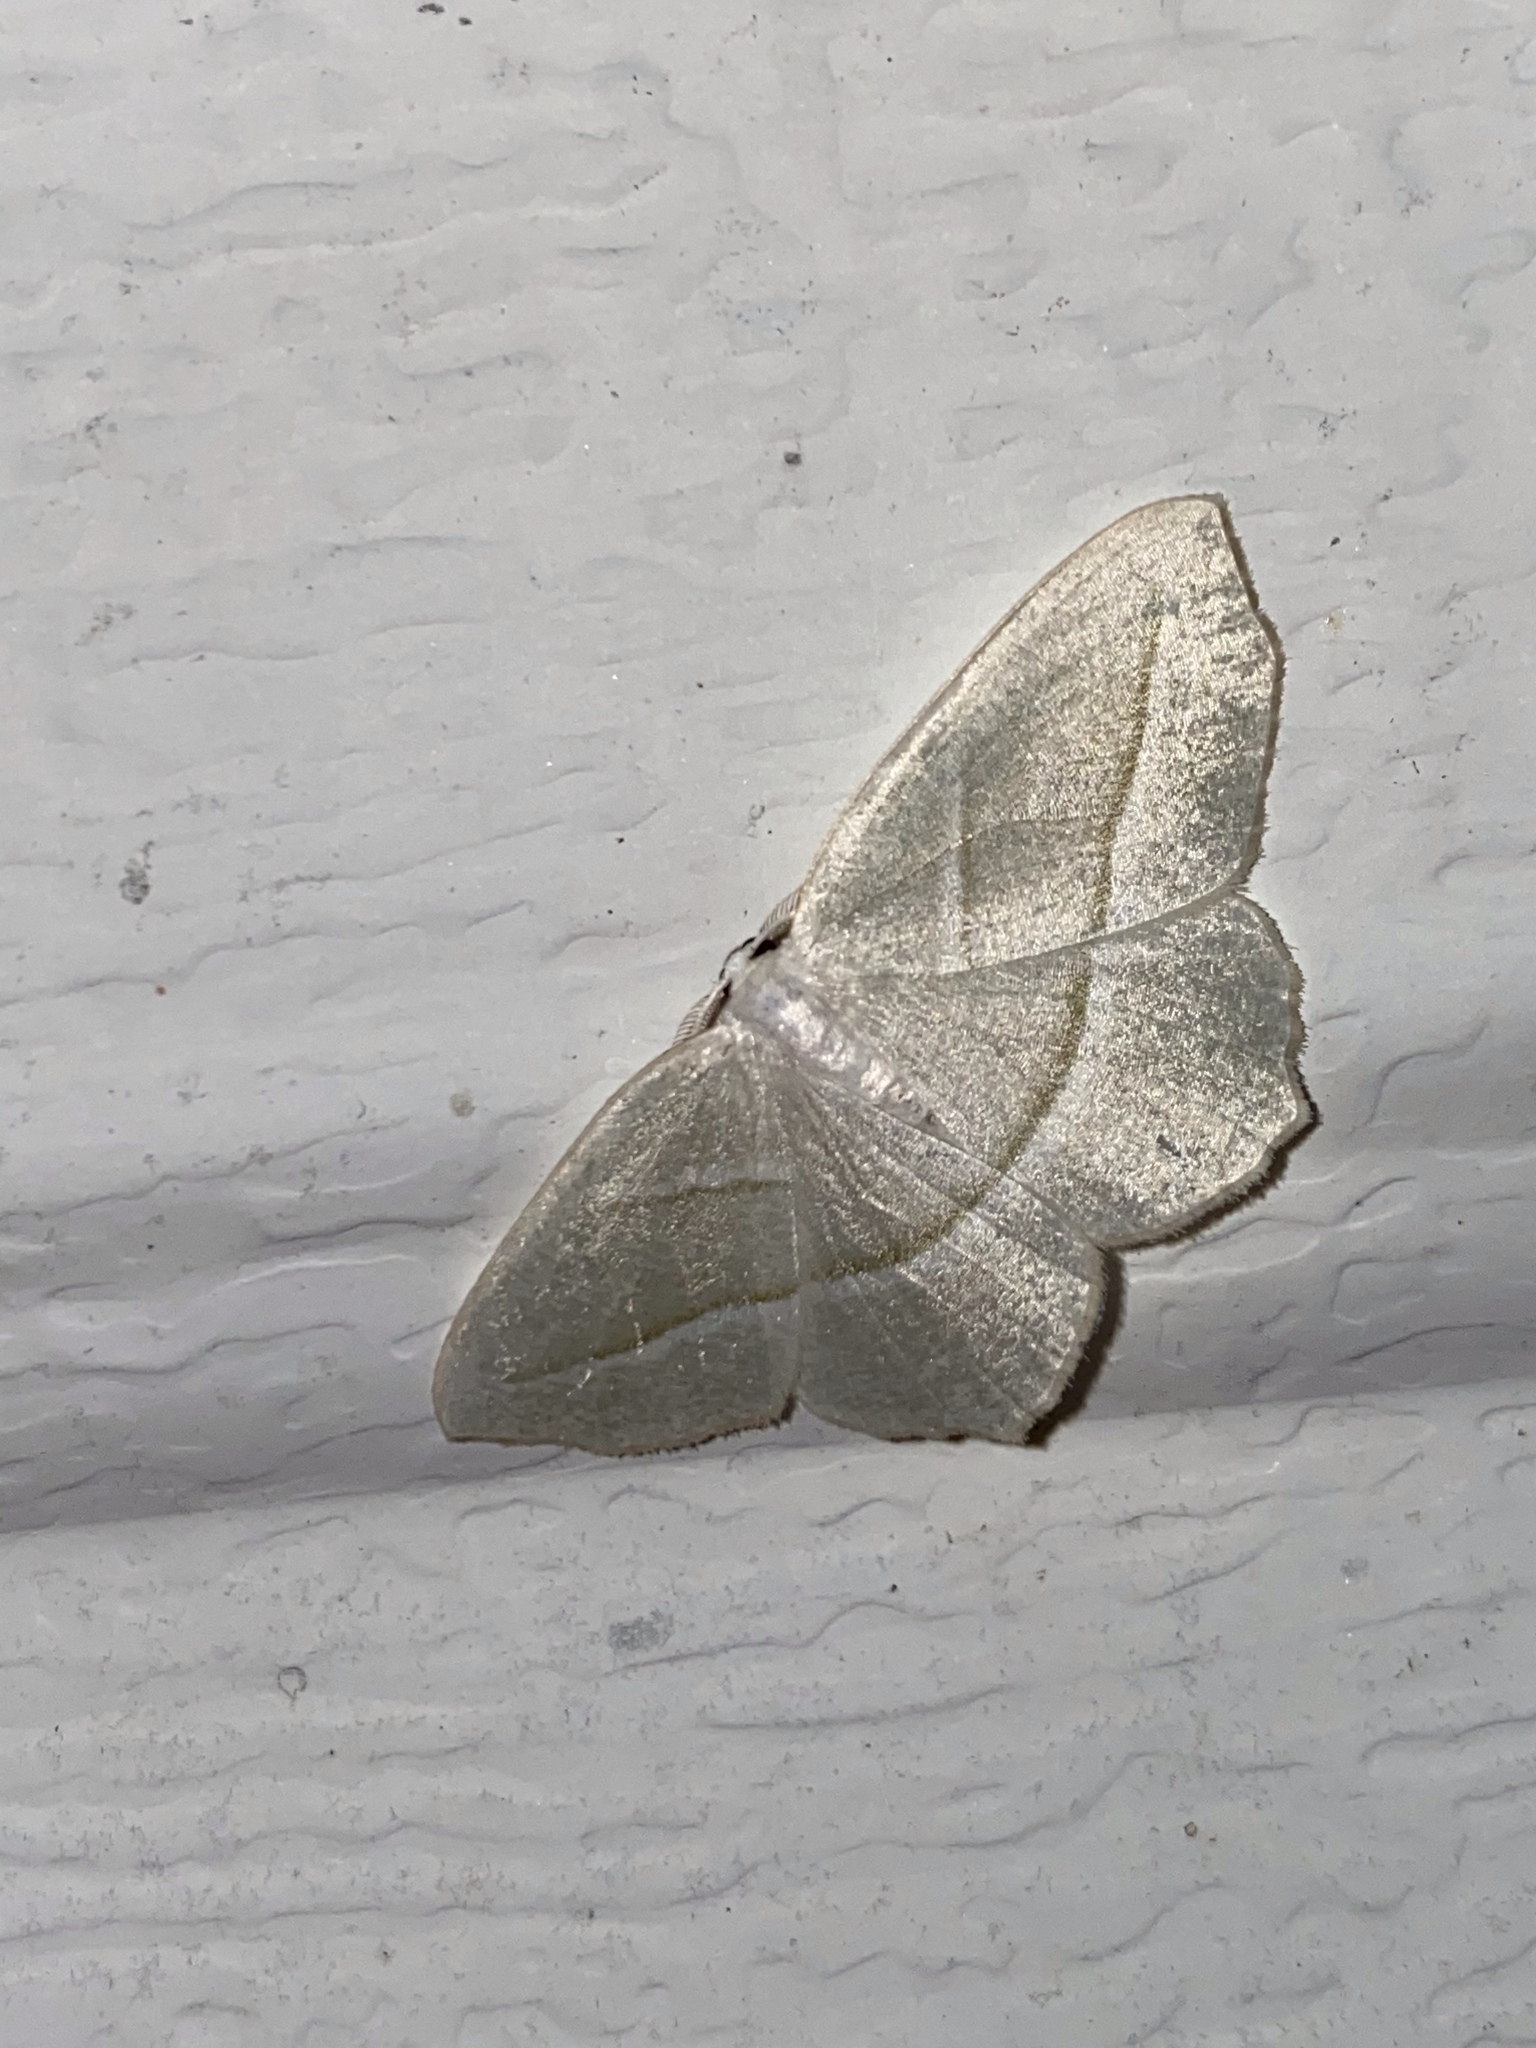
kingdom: Animalia
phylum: Arthropoda
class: Insecta
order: Lepidoptera
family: Geometridae
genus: Campaea
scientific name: Campaea perlata
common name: Fringed looper
